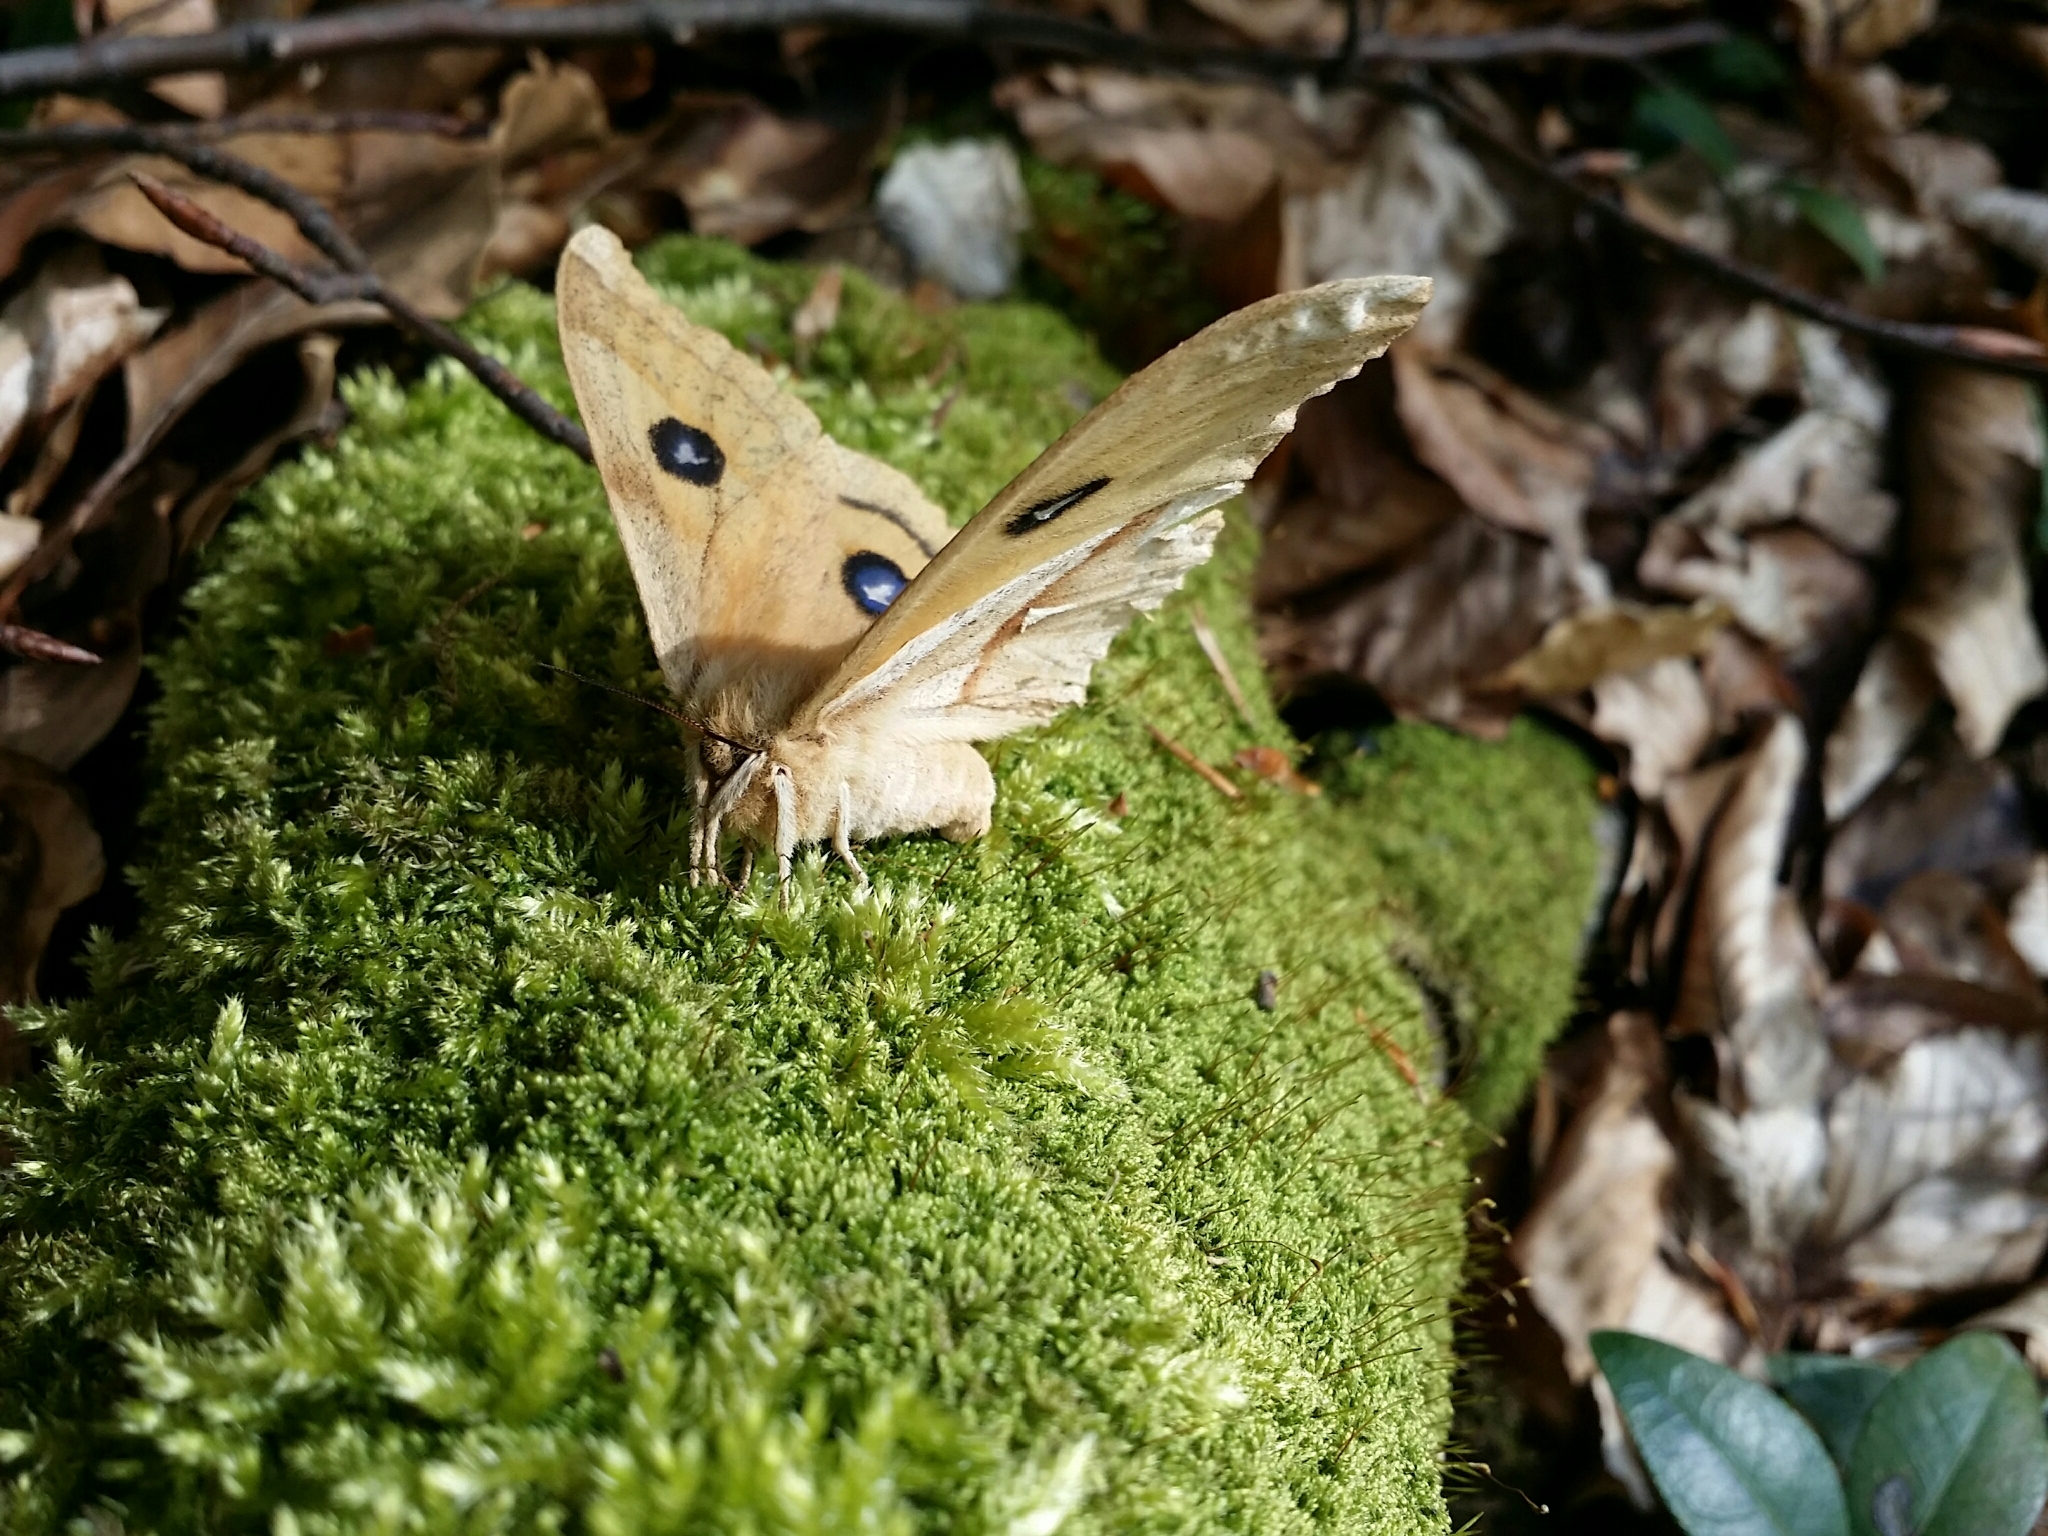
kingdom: Animalia
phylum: Arthropoda
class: Insecta
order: Lepidoptera
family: Saturniidae
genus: Aglia
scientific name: Aglia tau
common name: Tau emperor
